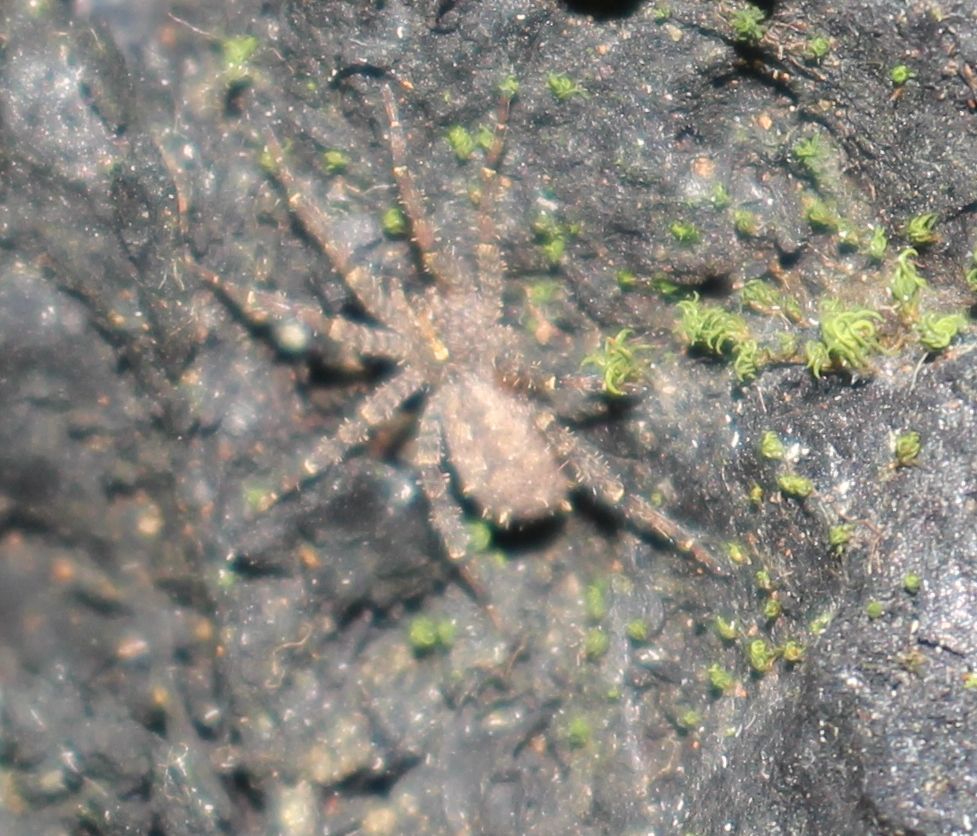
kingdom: Animalia
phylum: Arthropoda
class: Arachnida
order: Araneae
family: Pisauridae
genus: Ornodolomedes
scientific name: Ornodolomedes nicholsoni
